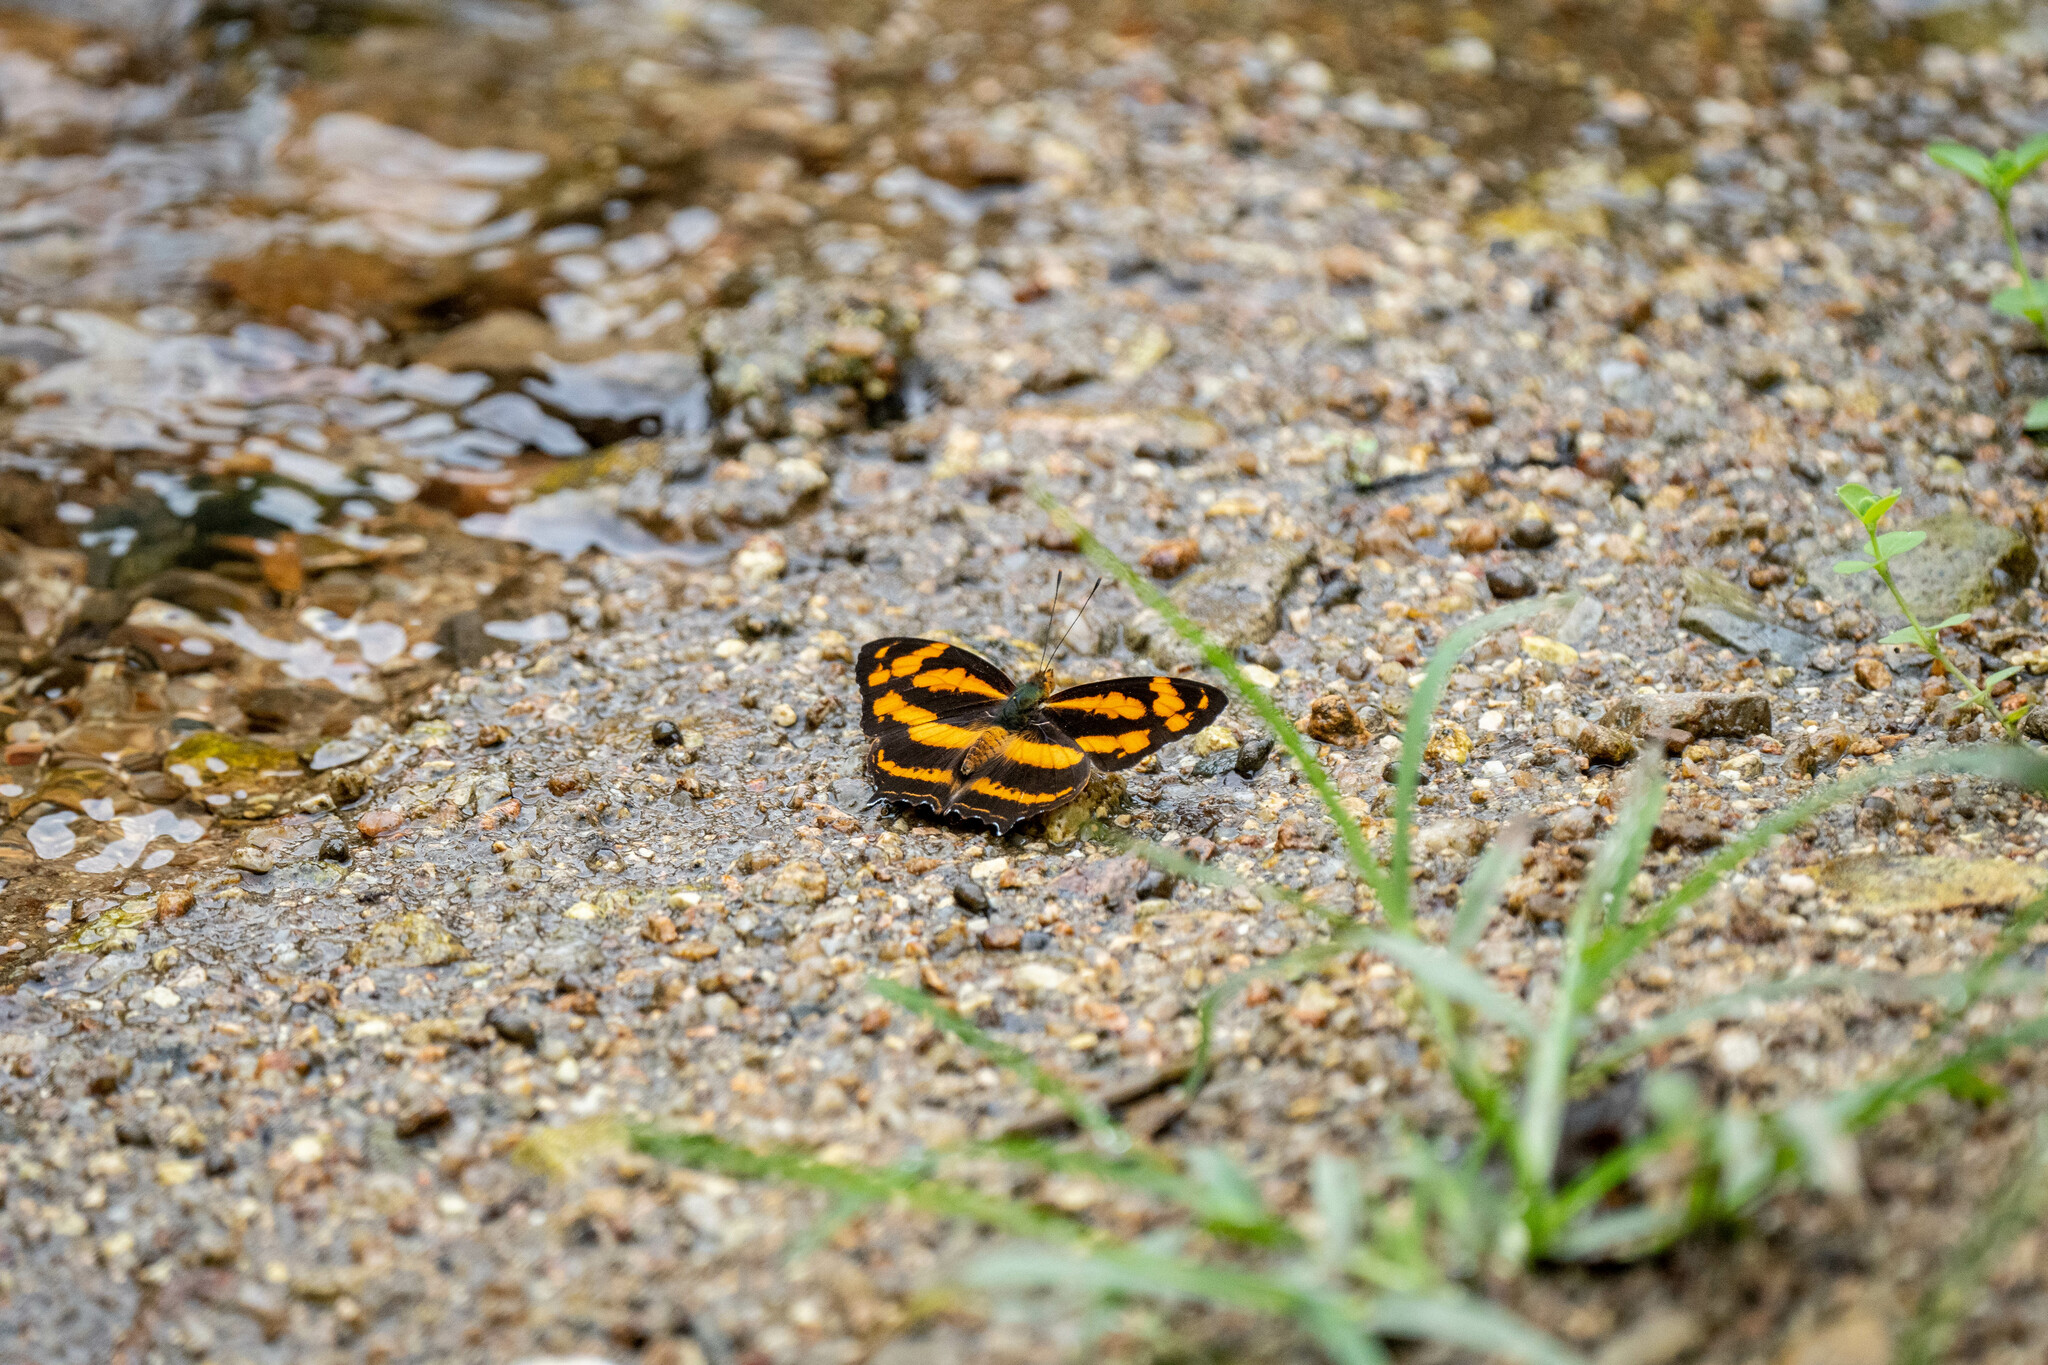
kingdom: Animalia
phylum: Arthropoda
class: Insecta
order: Lepidoptera
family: Nymphalidae
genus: Symbrenthia
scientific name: Symbrenthia hypselis
